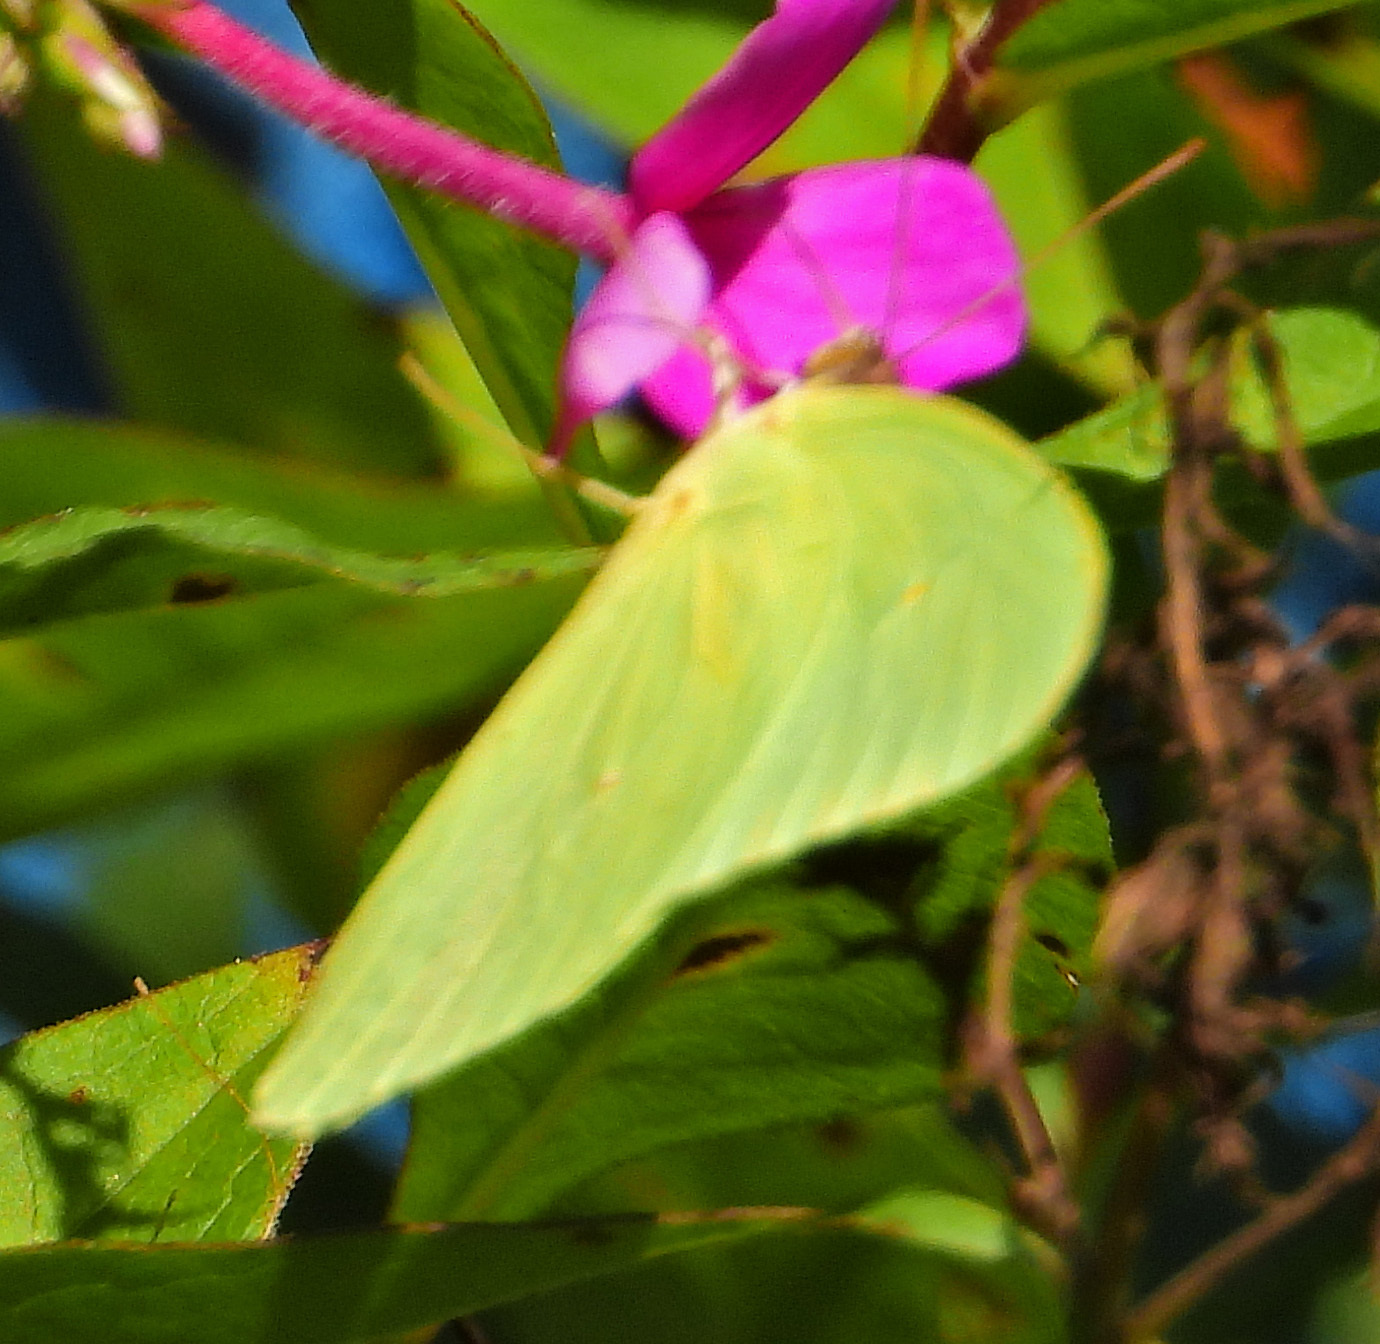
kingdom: Animalia
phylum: Arthropoda
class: Insecta
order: Lepidoptera
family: Pieridae
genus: Phoebis
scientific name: Phoebis sennae
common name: Cloudless sulphur
